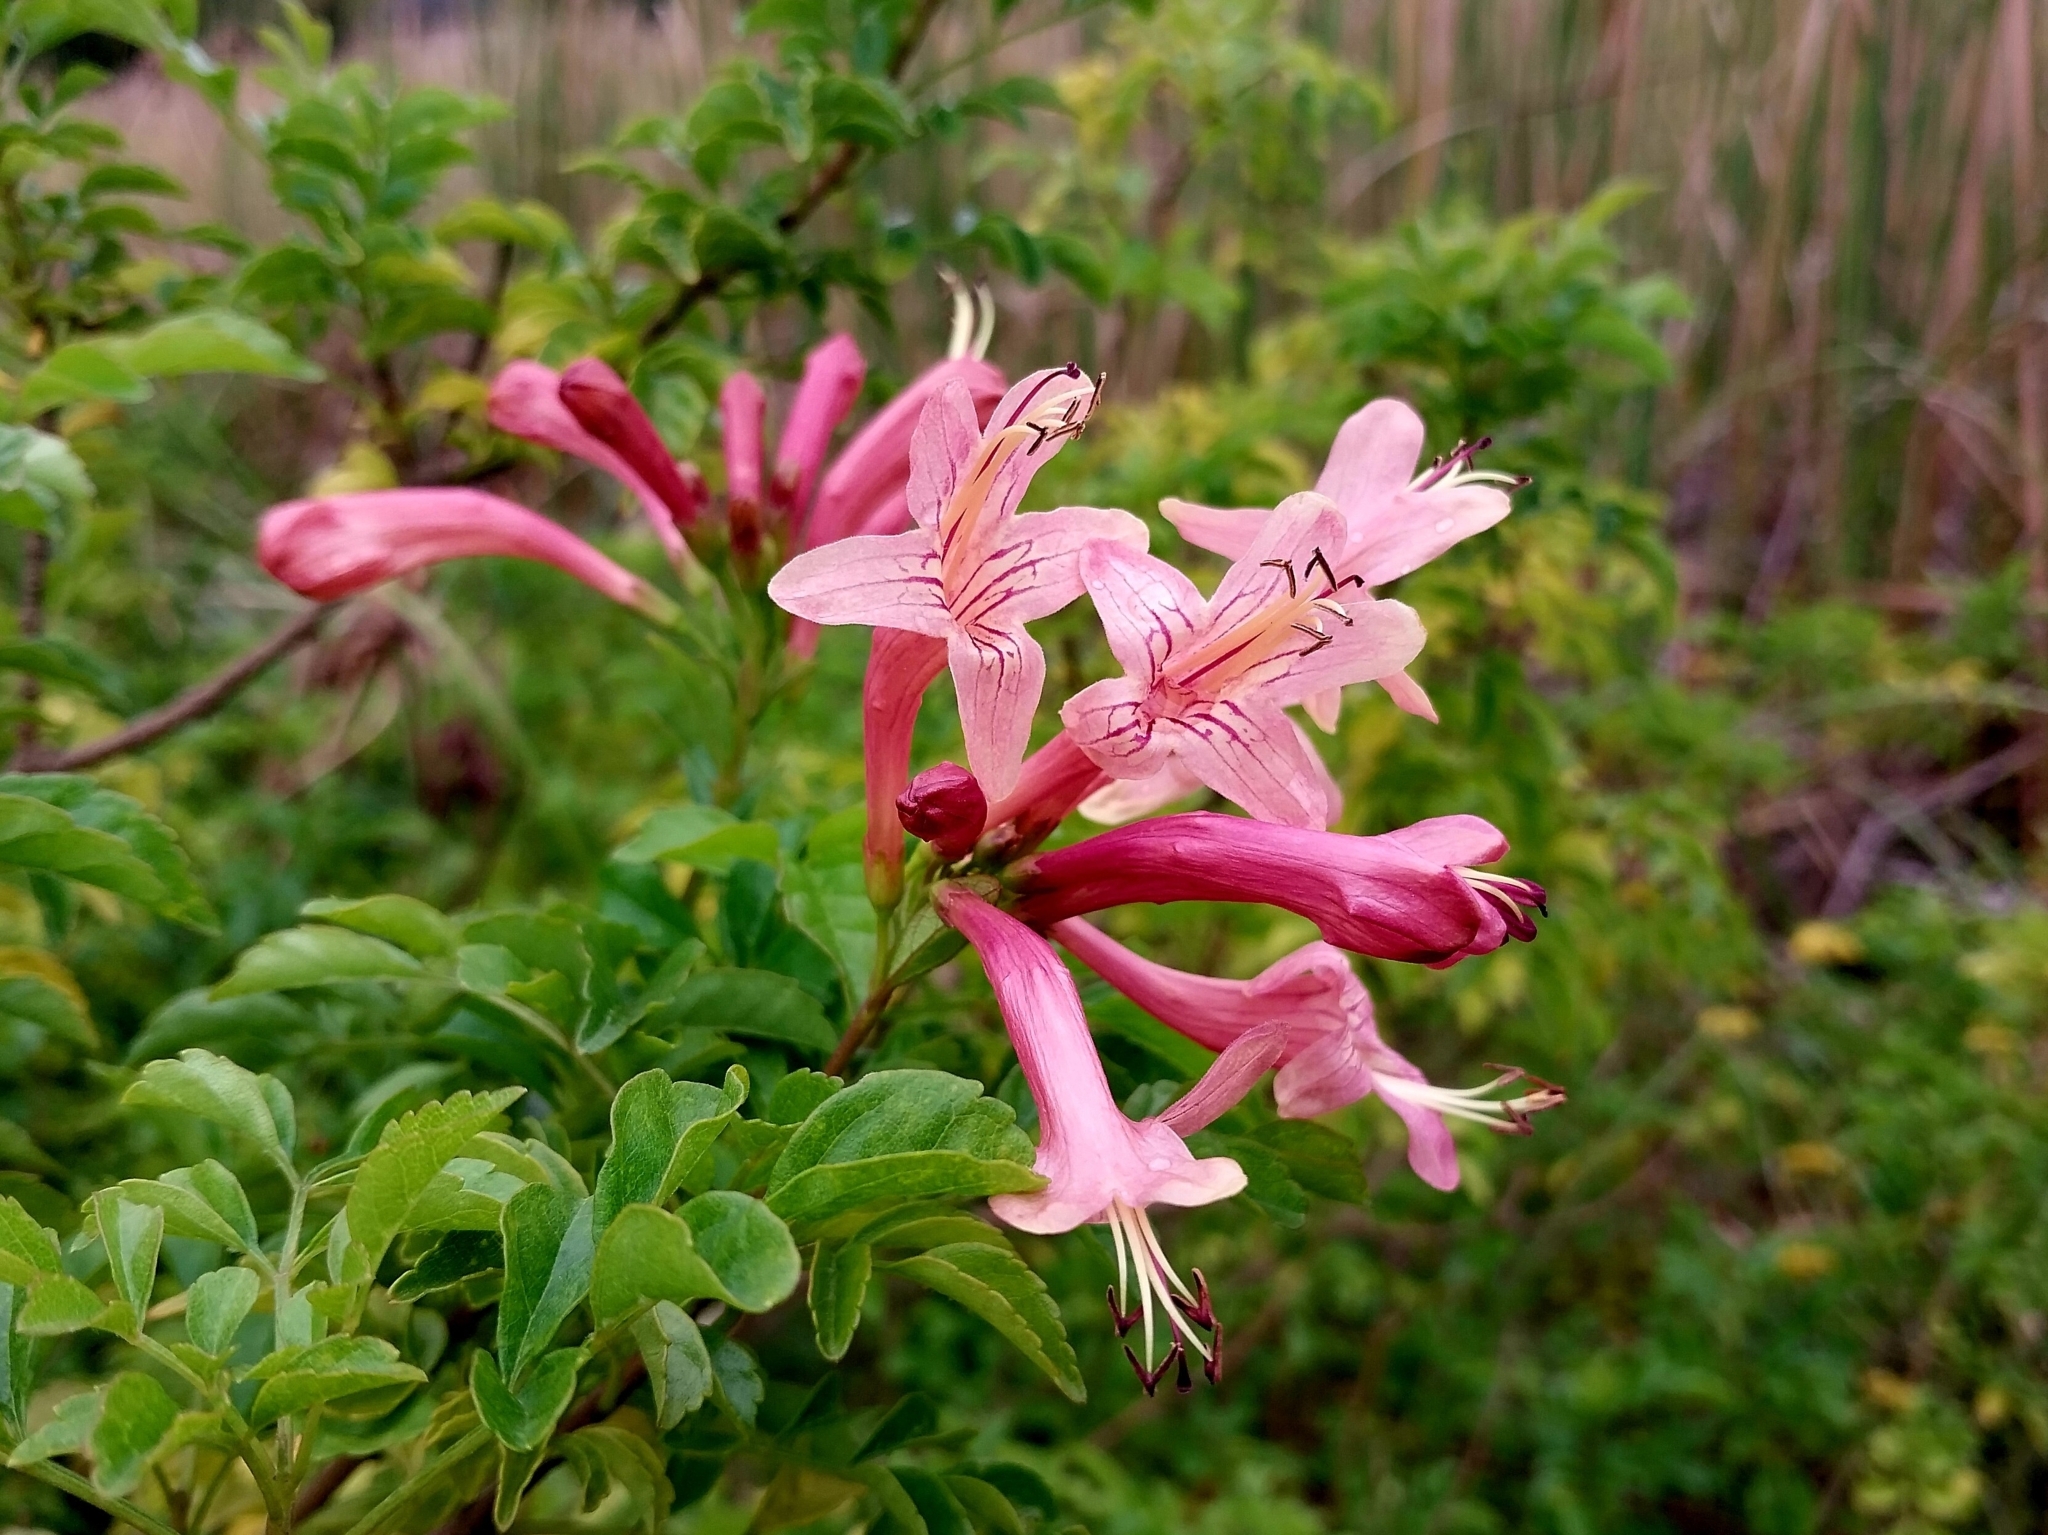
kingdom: Plantae
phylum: Tracheophyta
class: Magnoliopsida
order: Lamiales
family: Bignoniaceae
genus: Tecomaria
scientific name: Tecomaria capensis
